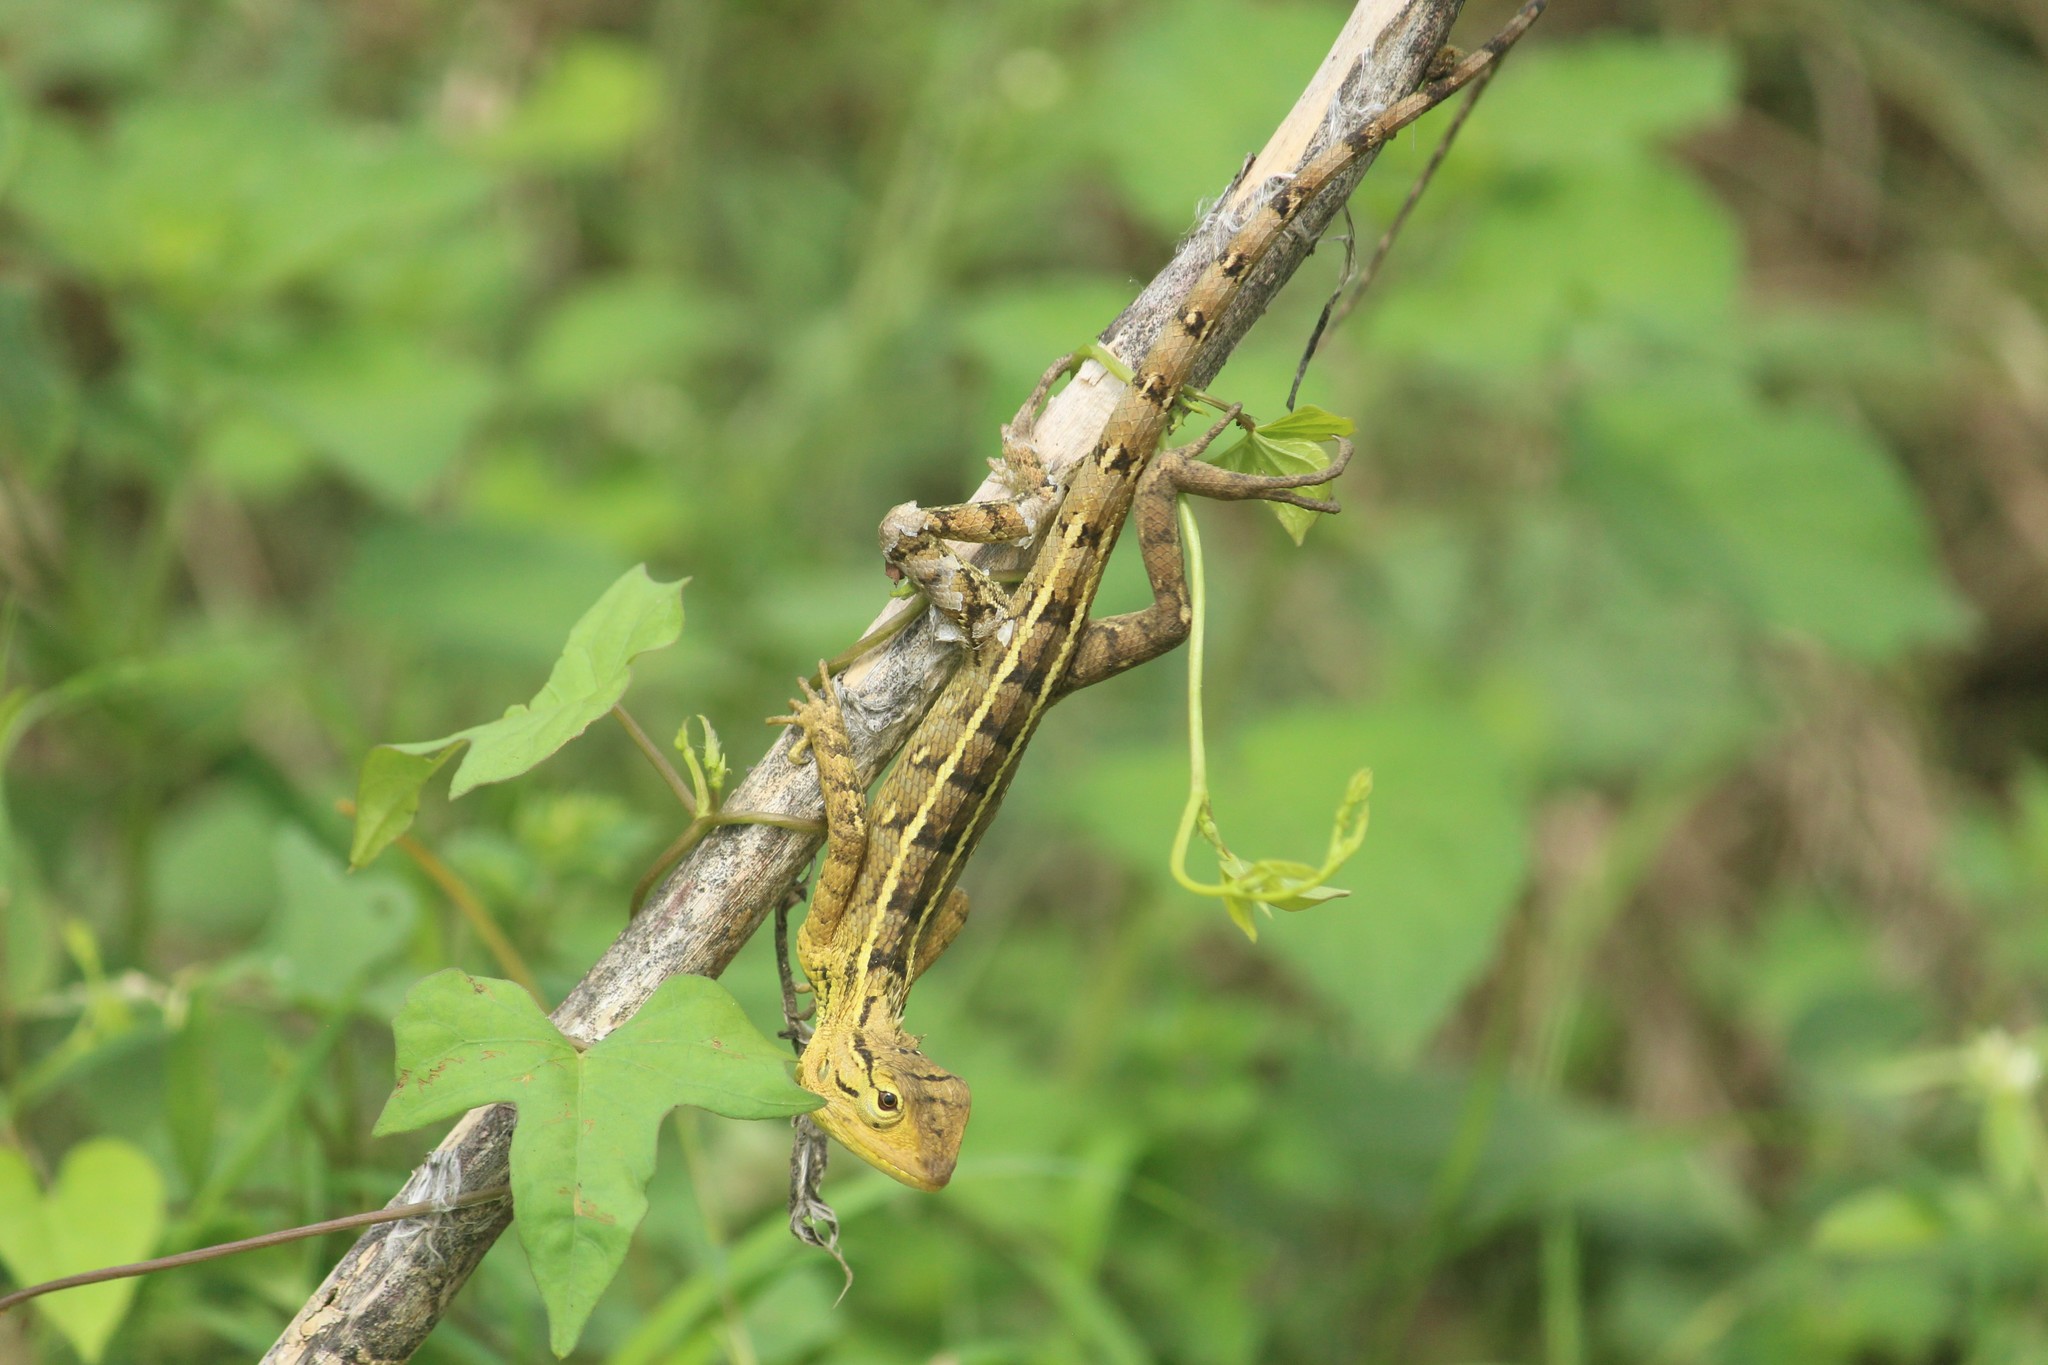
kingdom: Animalia
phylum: Chordata
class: Squamata
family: Agamidae
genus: Calotes
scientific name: Calotes versicolor
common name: Oriental garden lizard
